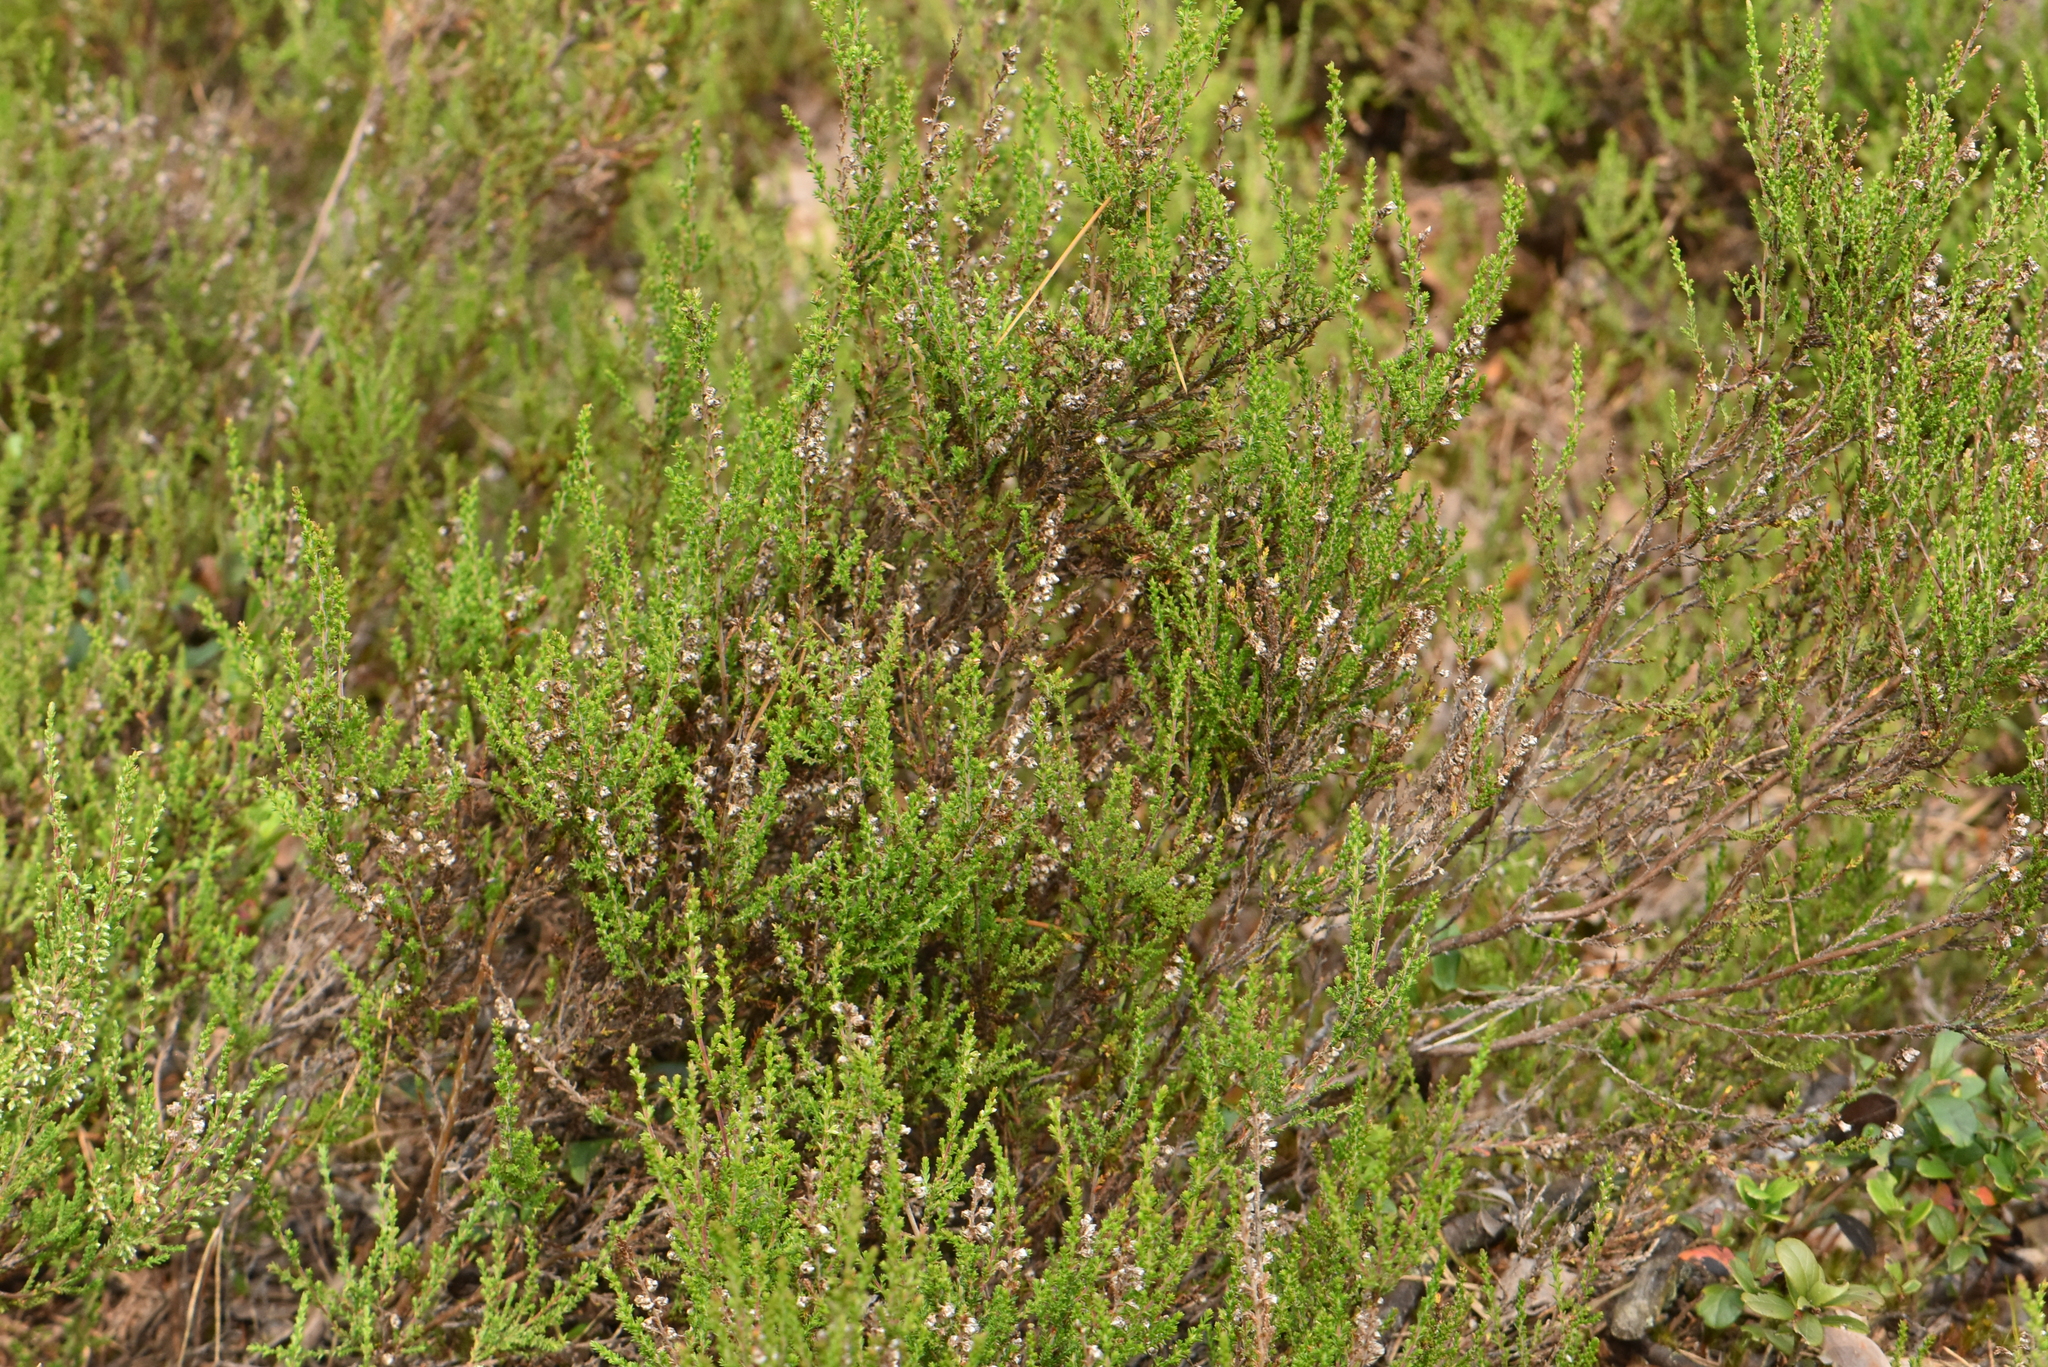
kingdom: Plantae
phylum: Tracheophyta
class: Magnoliopsida
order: Ericales
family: Ericaceae
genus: Calluna
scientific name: Calluna vulgaris
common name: Heather
